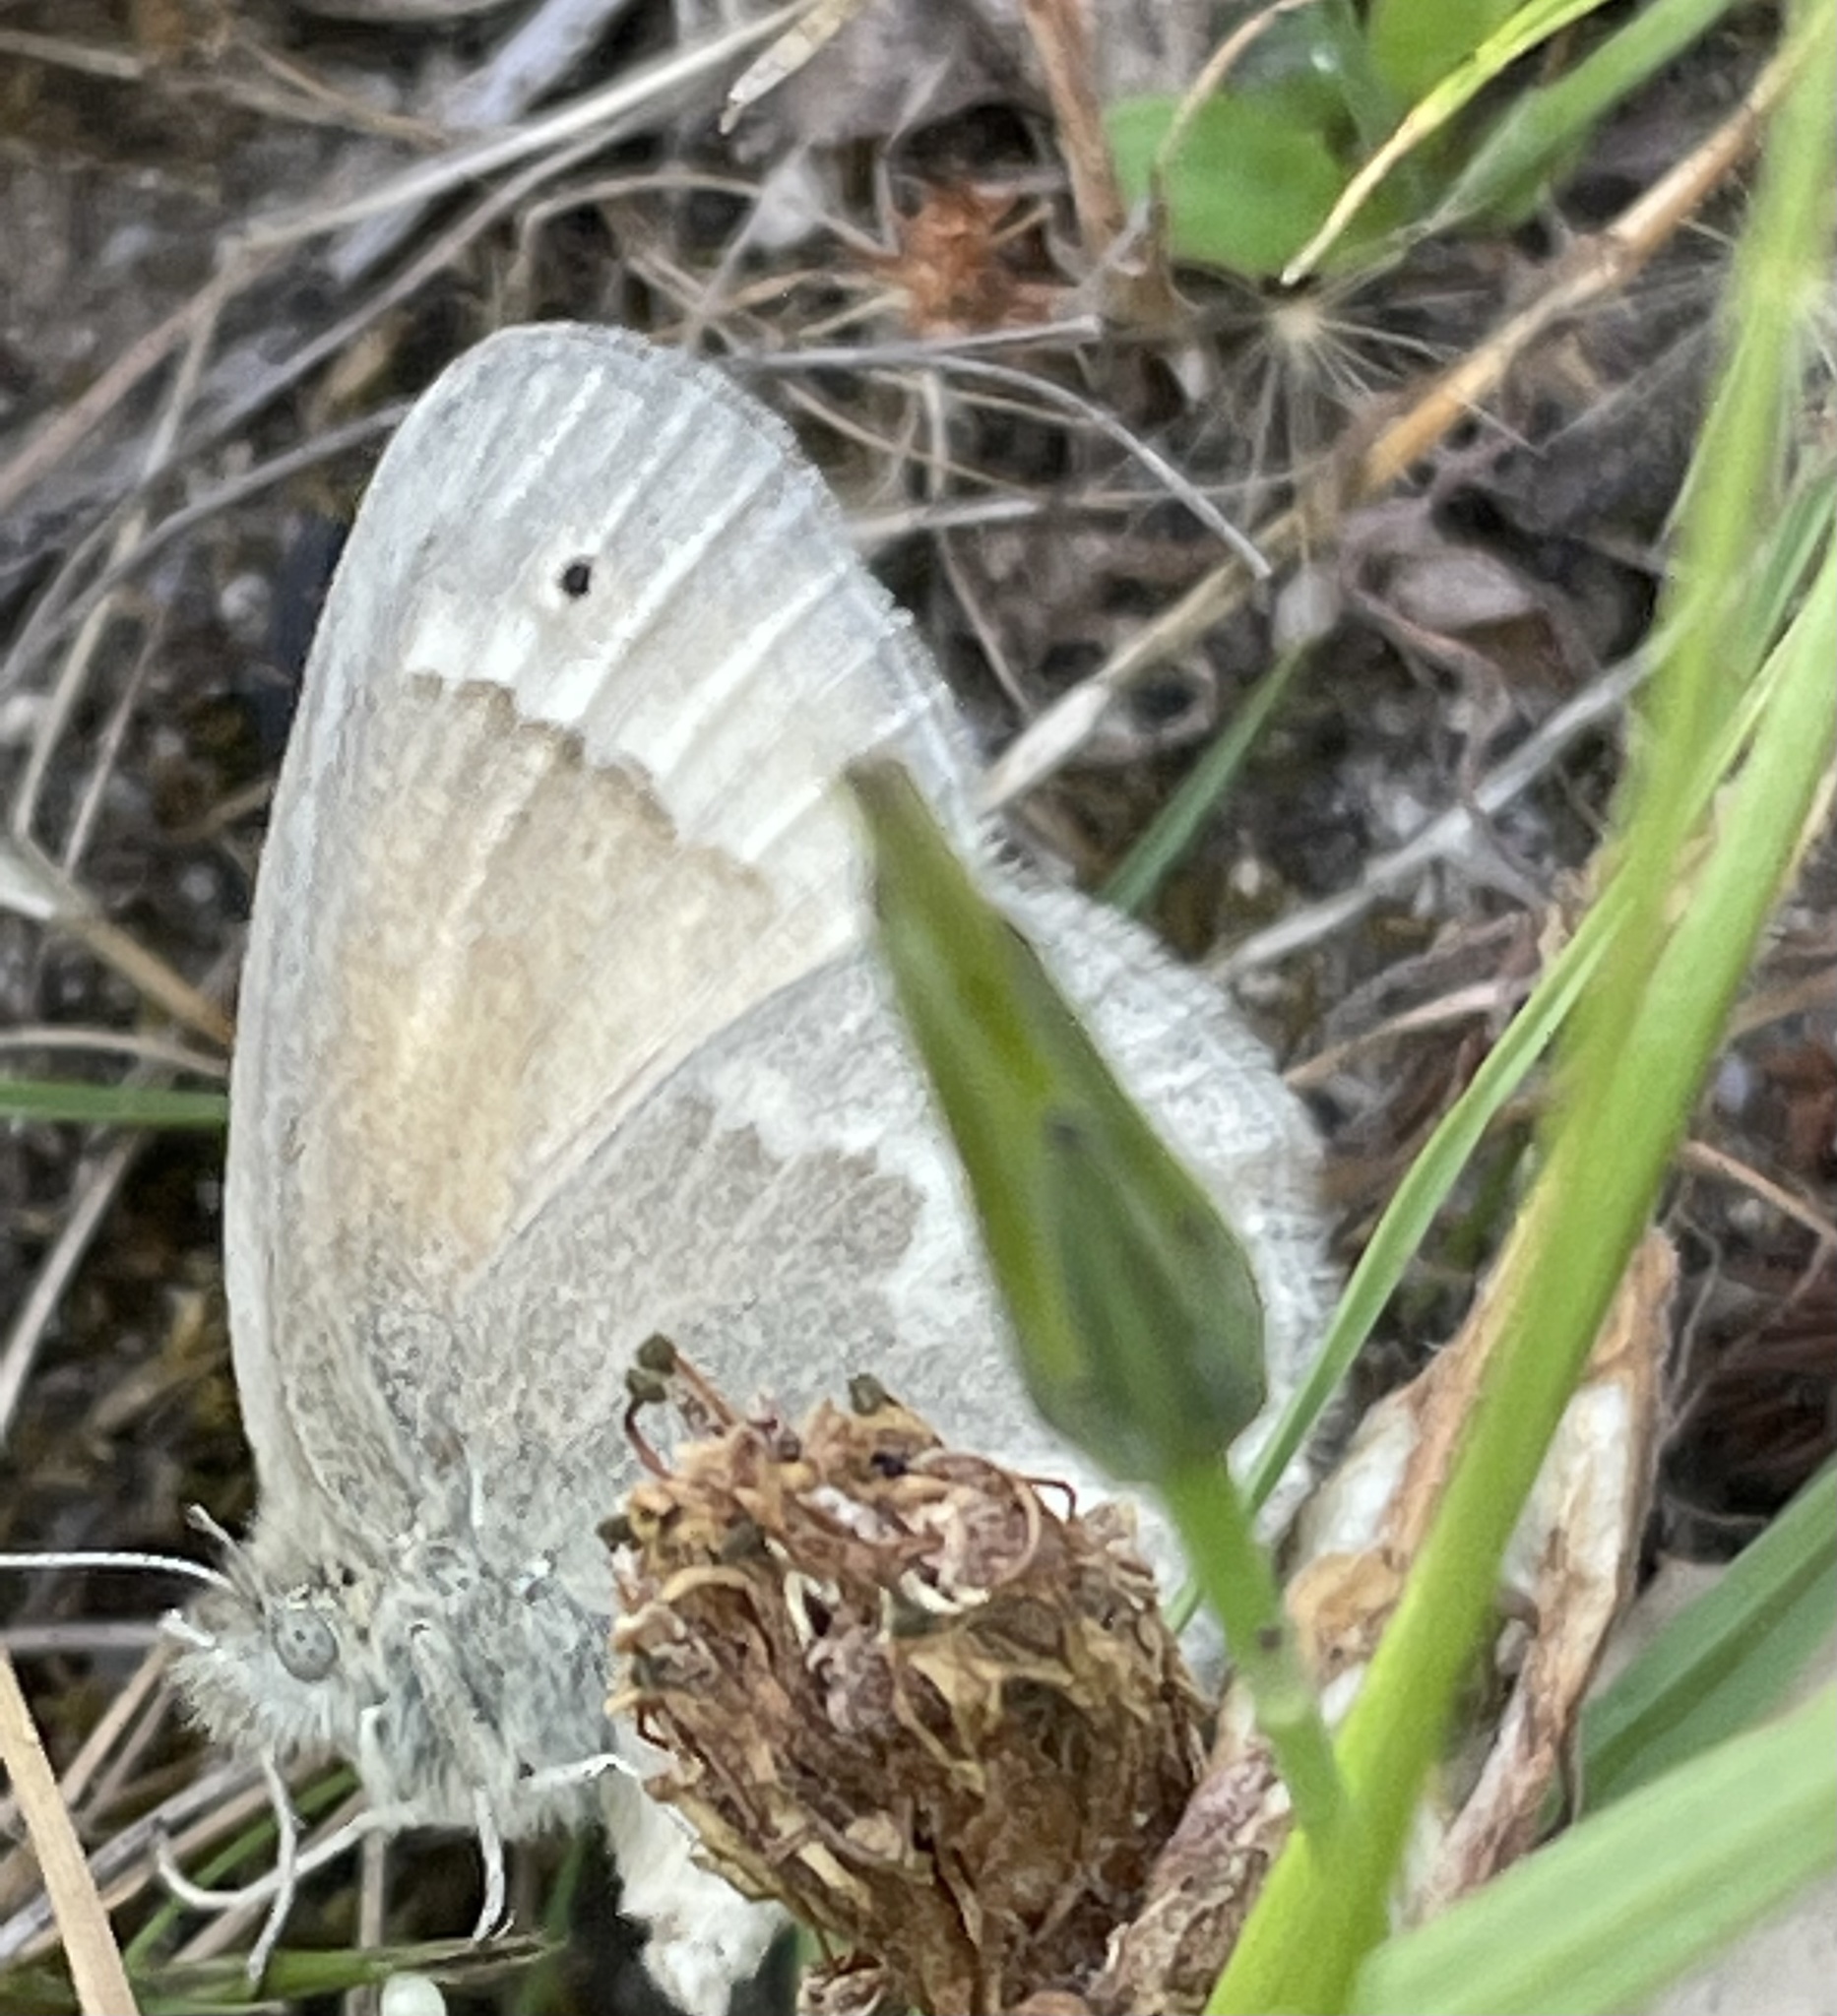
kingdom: Animalia
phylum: Arthropoda
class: Insecta
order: Lepidoptera
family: Nymphalidae
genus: Coenonympha
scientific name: Coenonympha california
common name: Common ringlet
